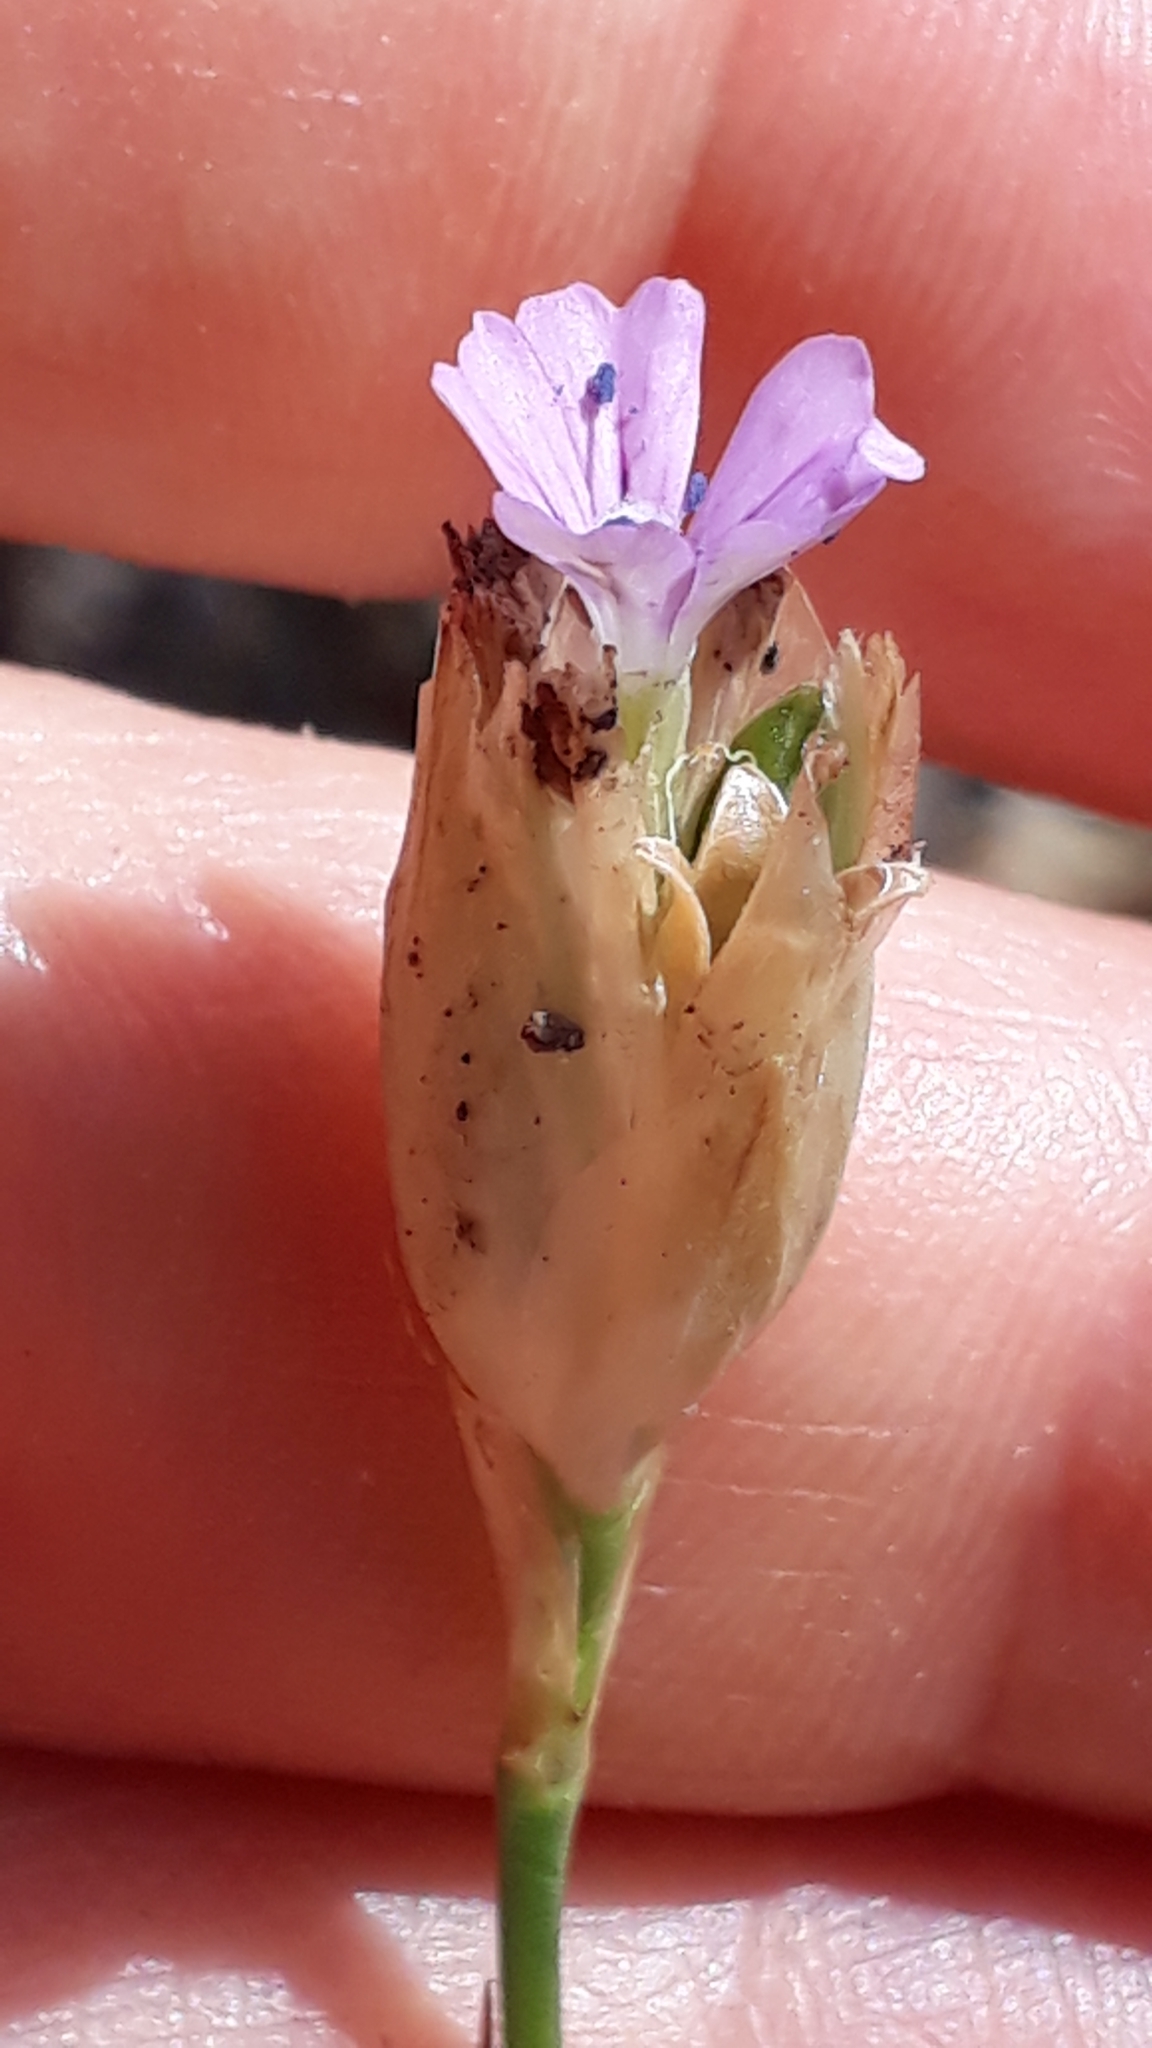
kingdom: Plantae
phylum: Tracheophyta
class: Magnoliopsida
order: Caryophyllales
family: Caryophyllaceae
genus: Petrorhagia
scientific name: Petrorhagia nanteuilii
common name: Proliferous pink
